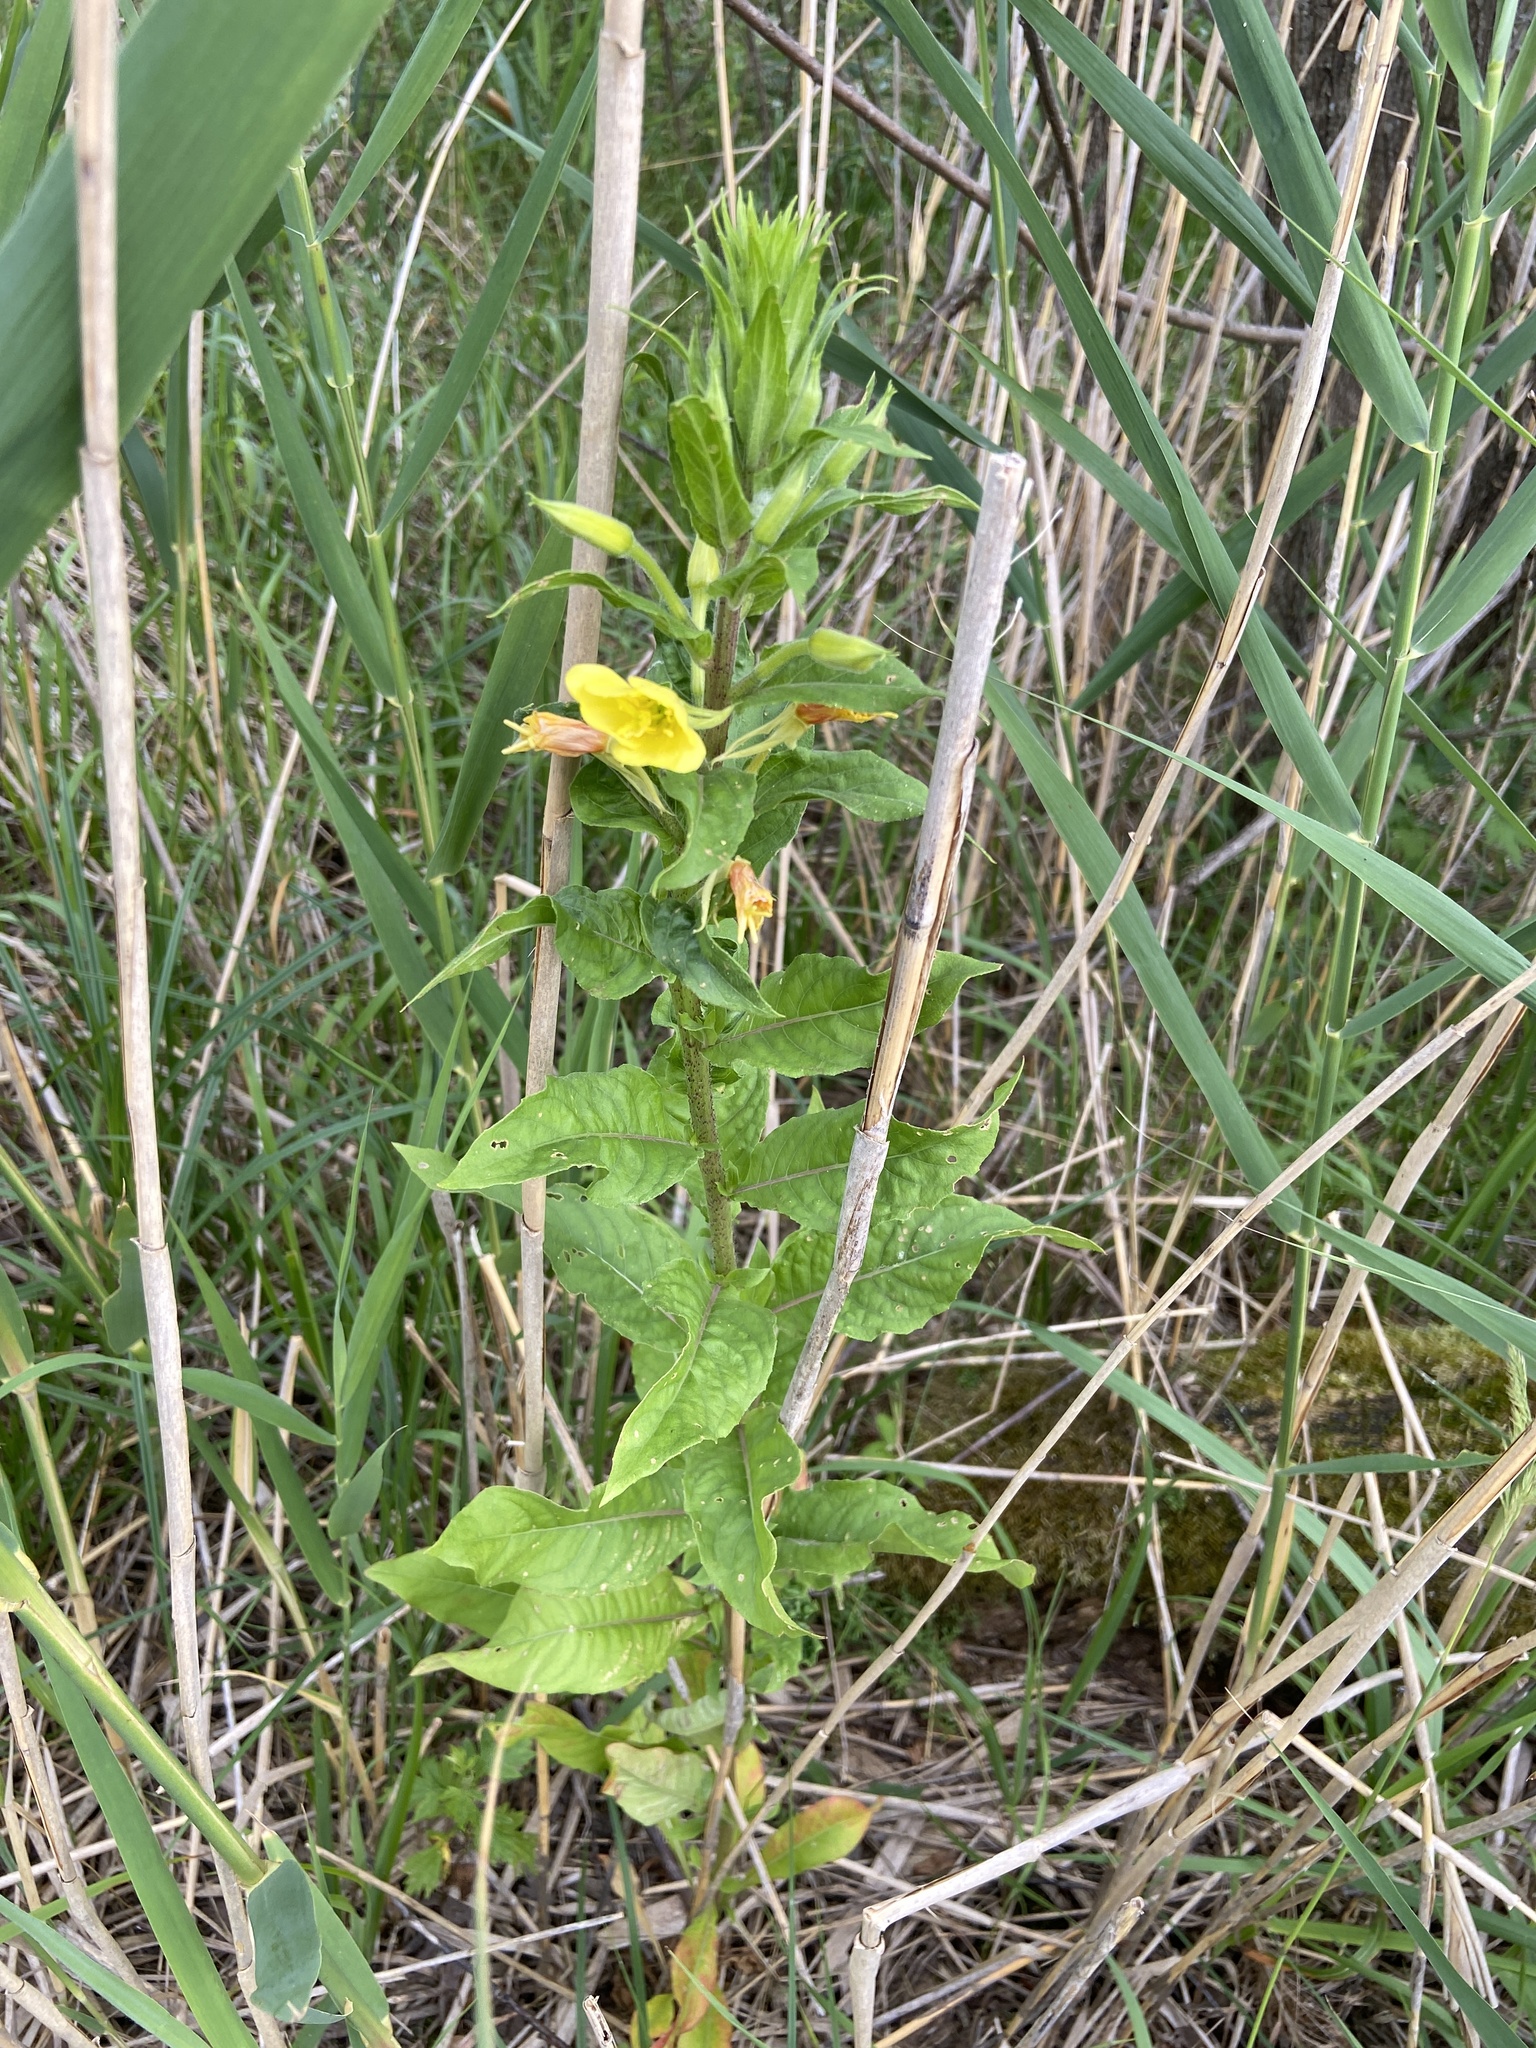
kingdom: Plantae
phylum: Tracheophyta
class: Magnoliopsida
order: Myrtales
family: Onagraceae
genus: Oenothera
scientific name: Oenothera rubricaulis
